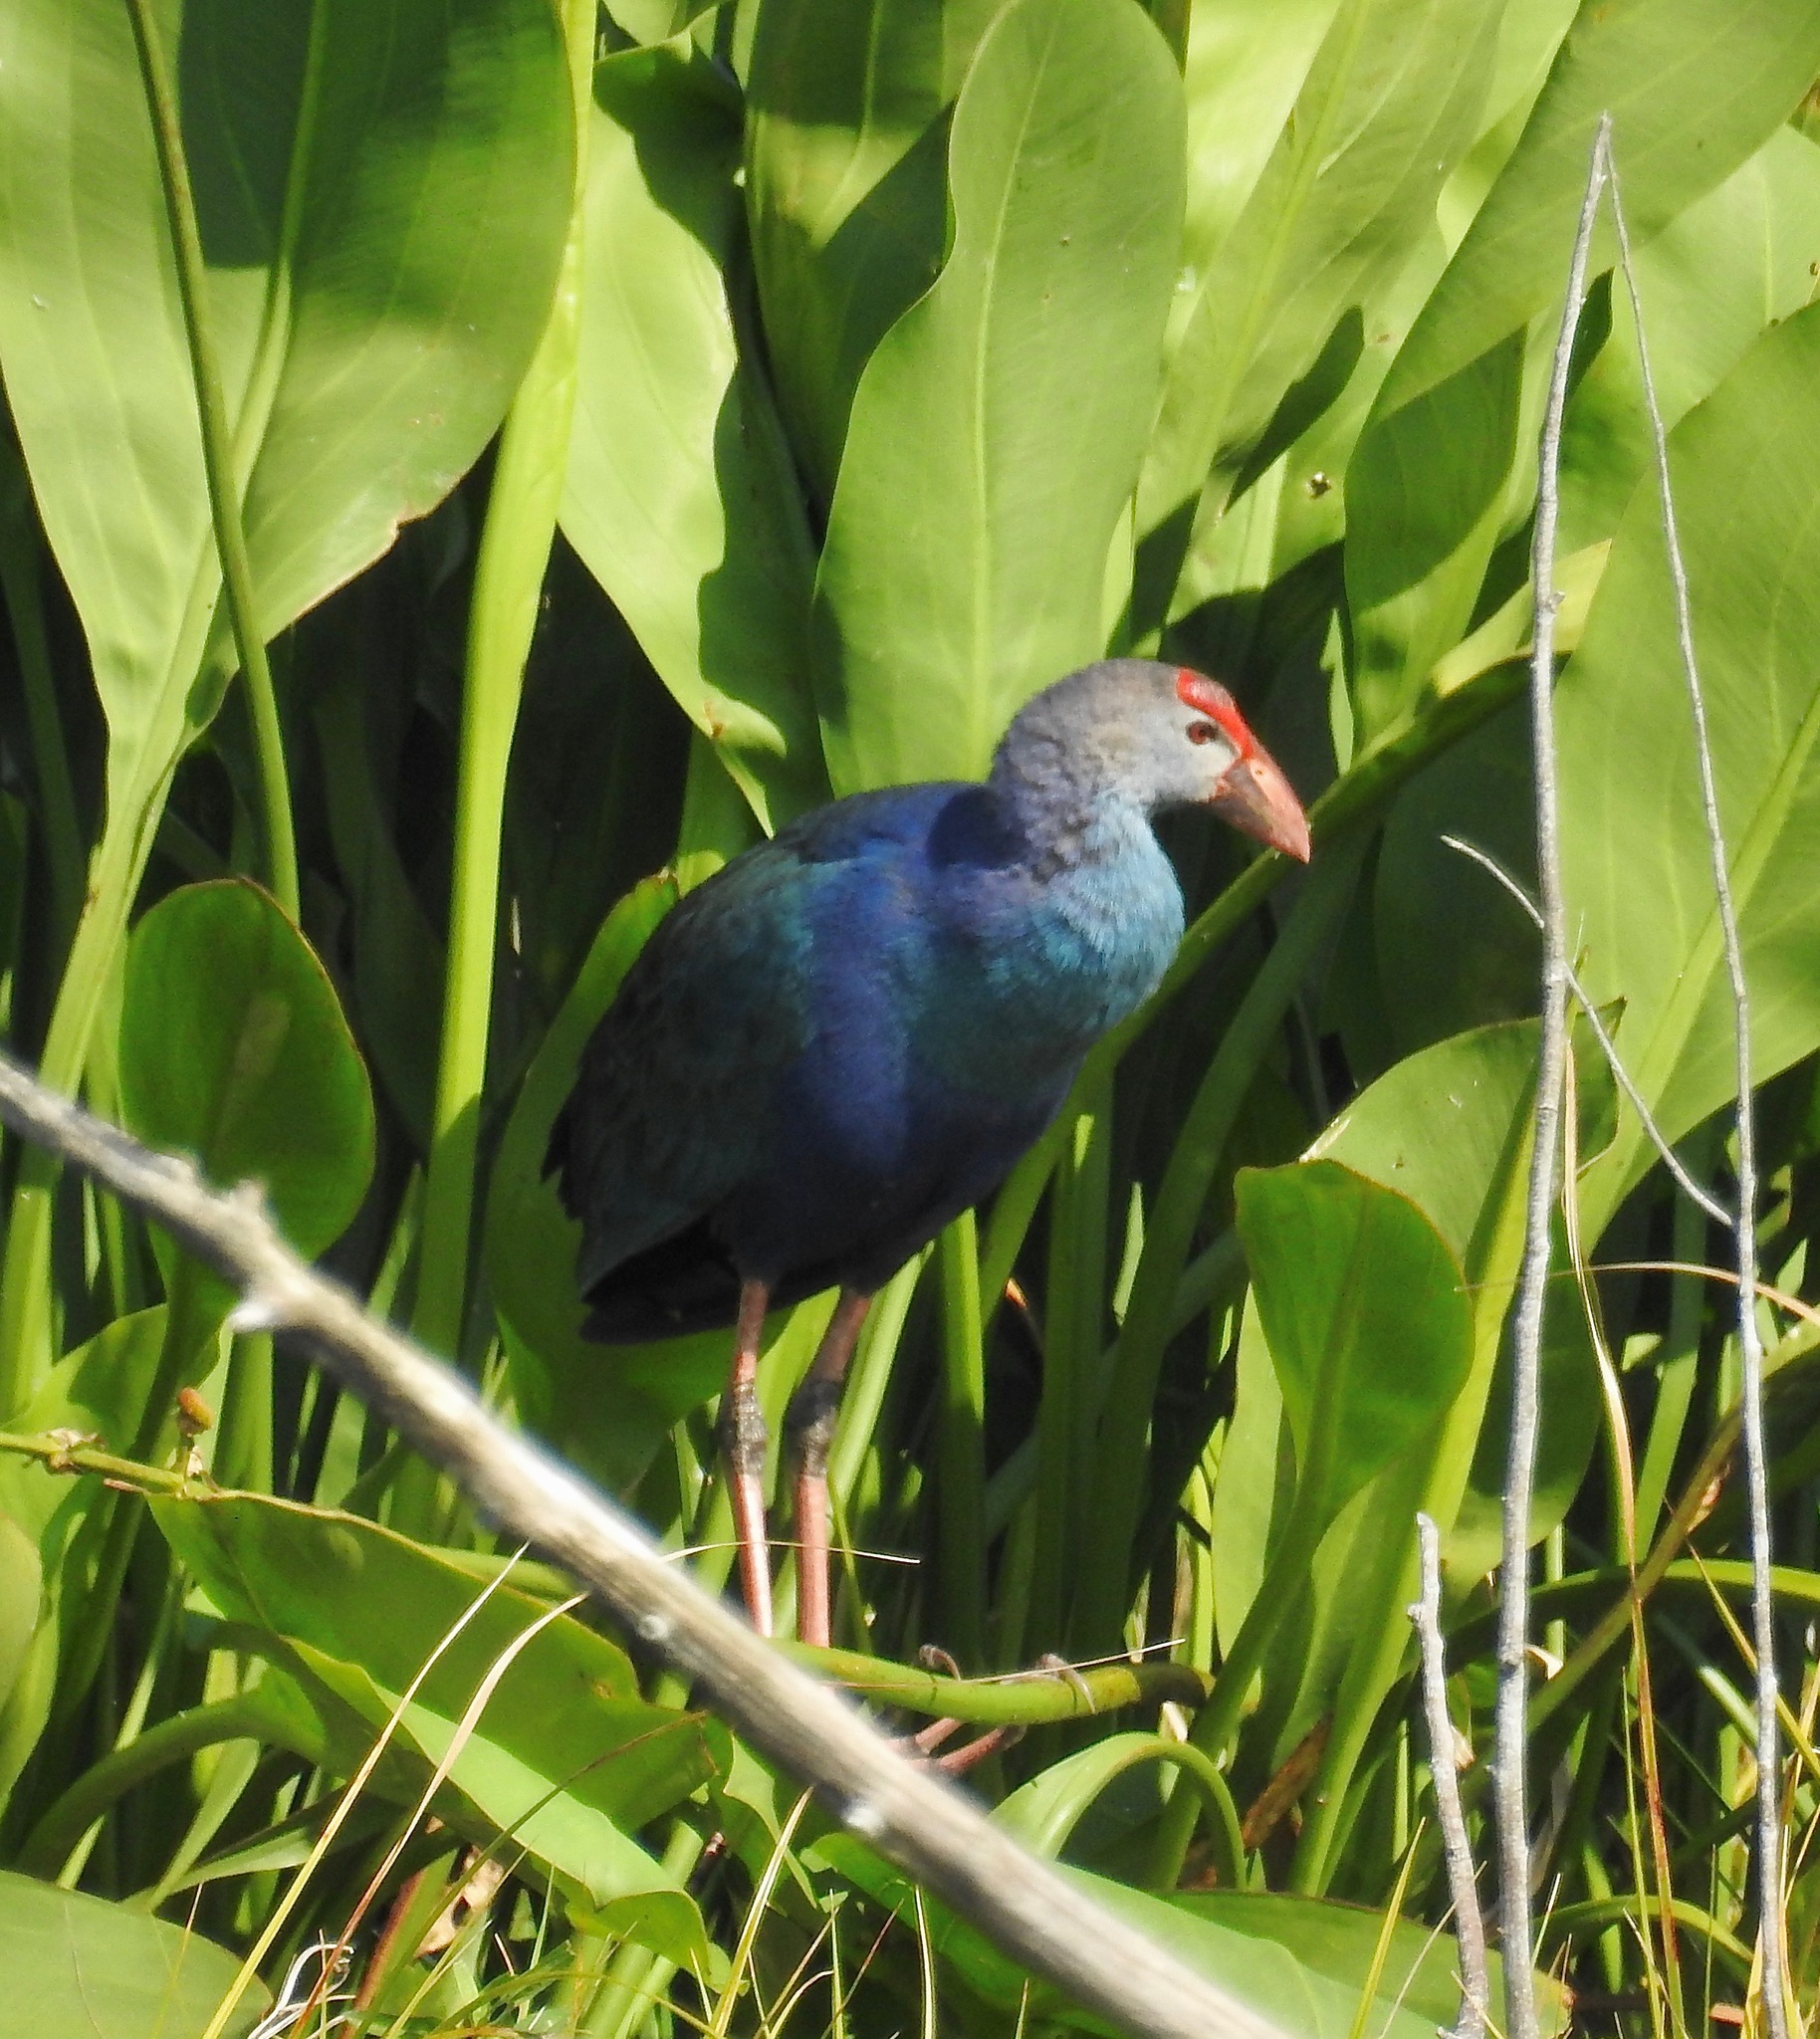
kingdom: Animalia
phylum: Chordata
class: Aves
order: Gruiformes
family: Rallidae
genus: Porphyrio
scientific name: Porphyrio porphyrio
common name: Purple swamphen
